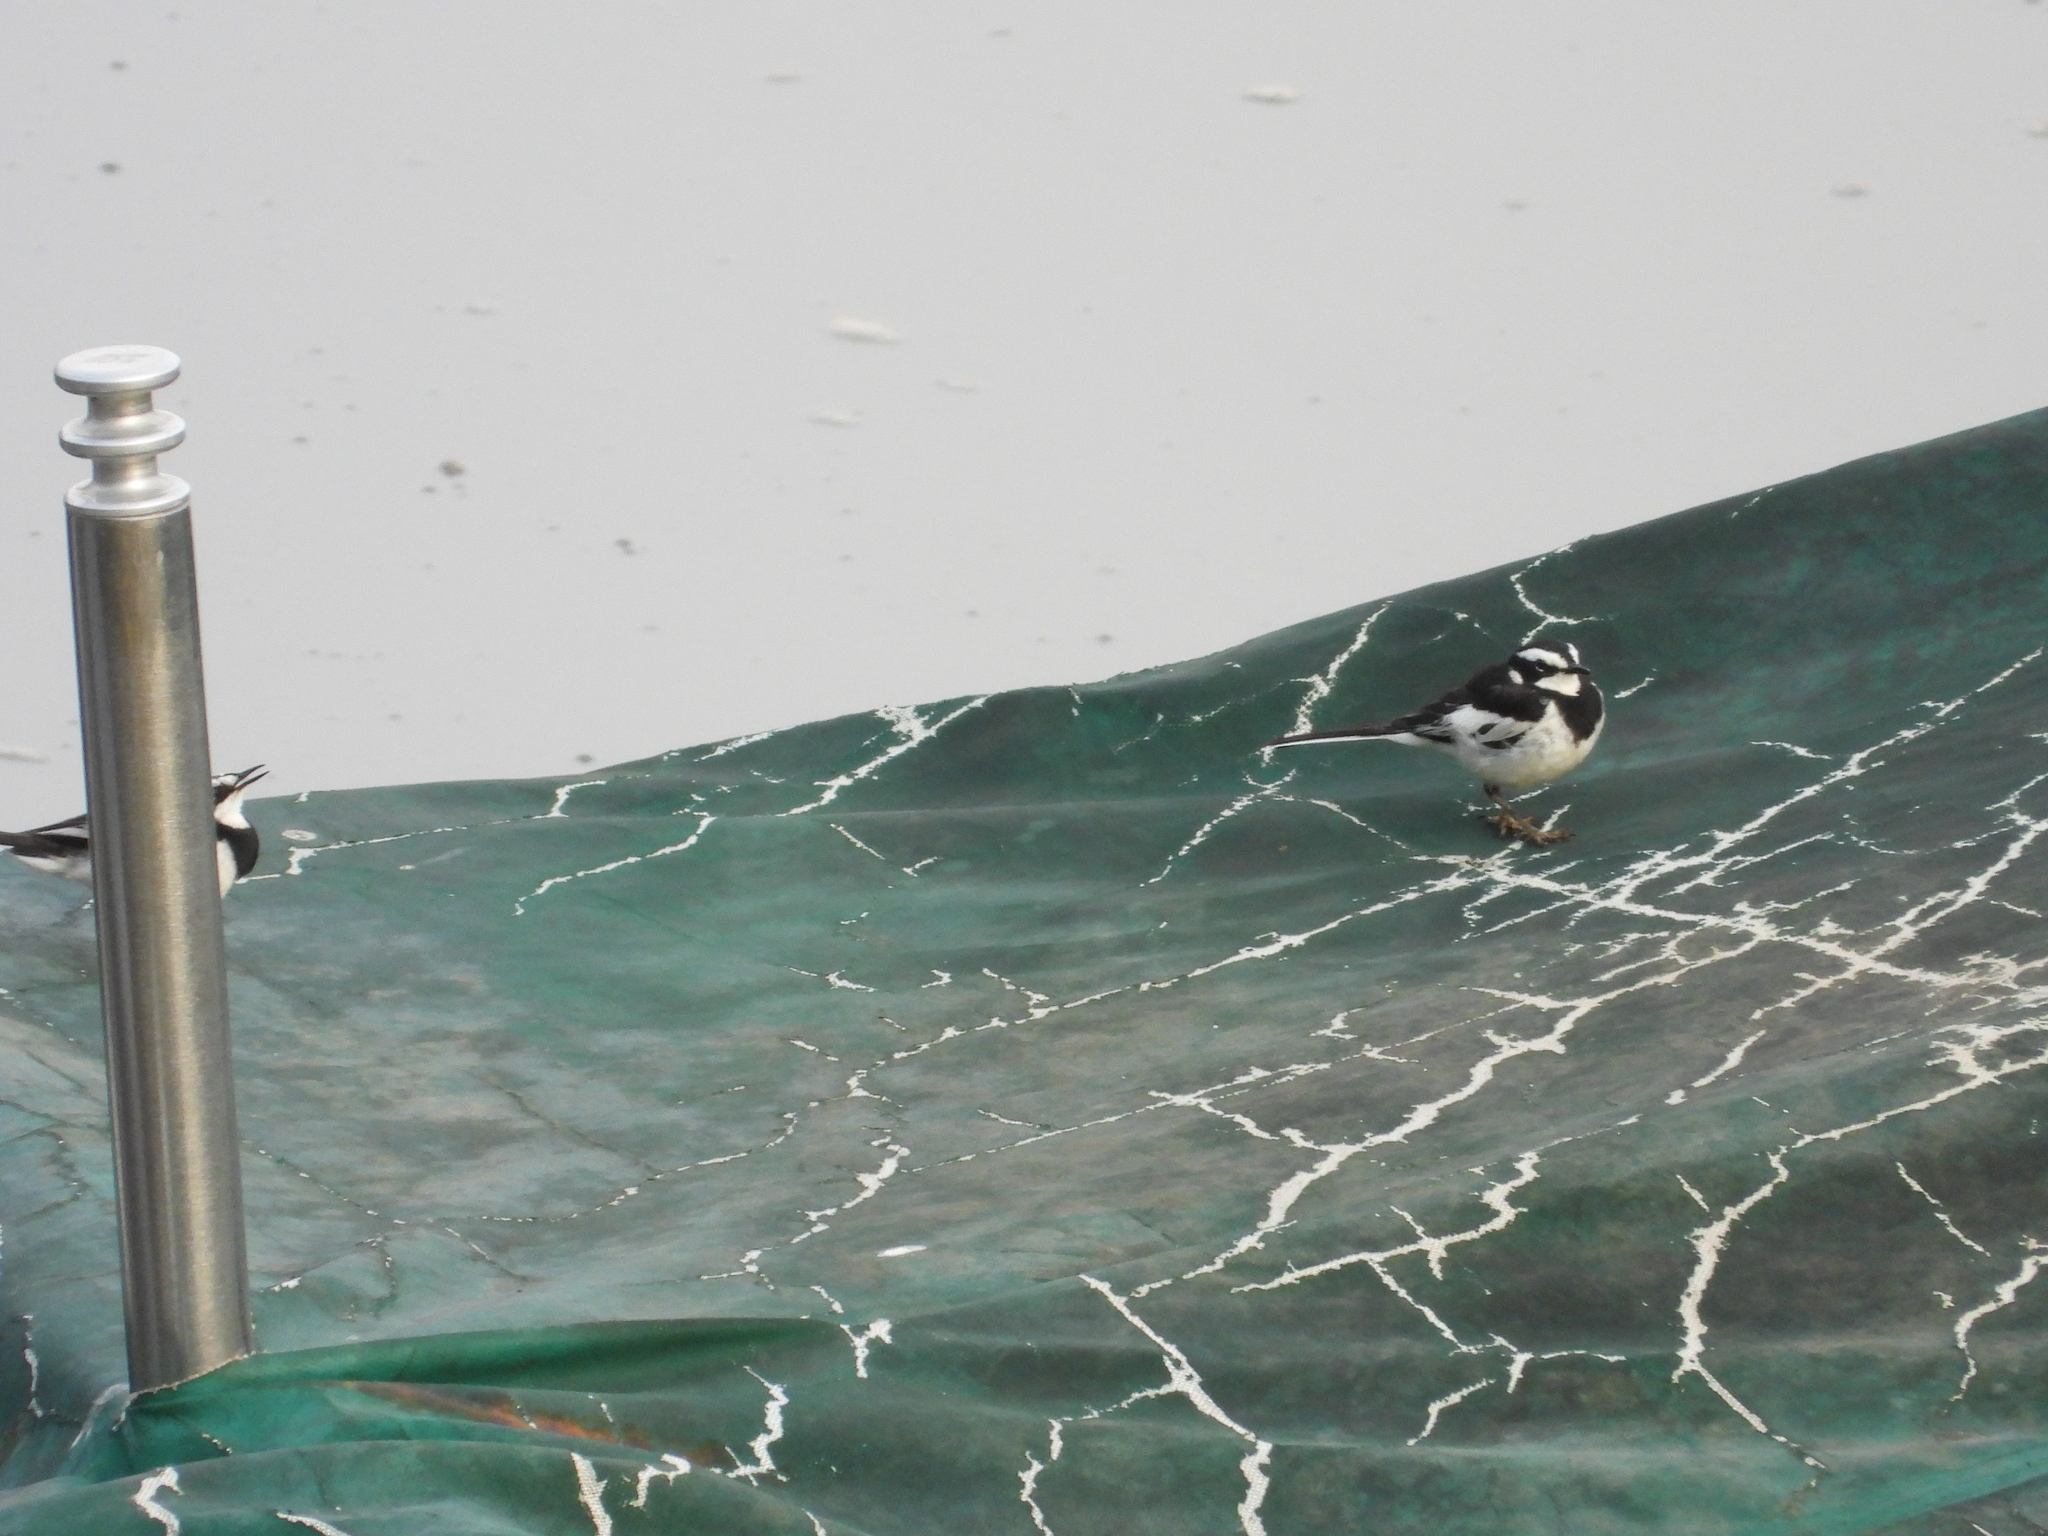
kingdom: Animalia
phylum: Chordata
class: Aves
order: Passeriformes
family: Motacillidae
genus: Motacilla
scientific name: Motacilla aguimp
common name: African pied wagtail
